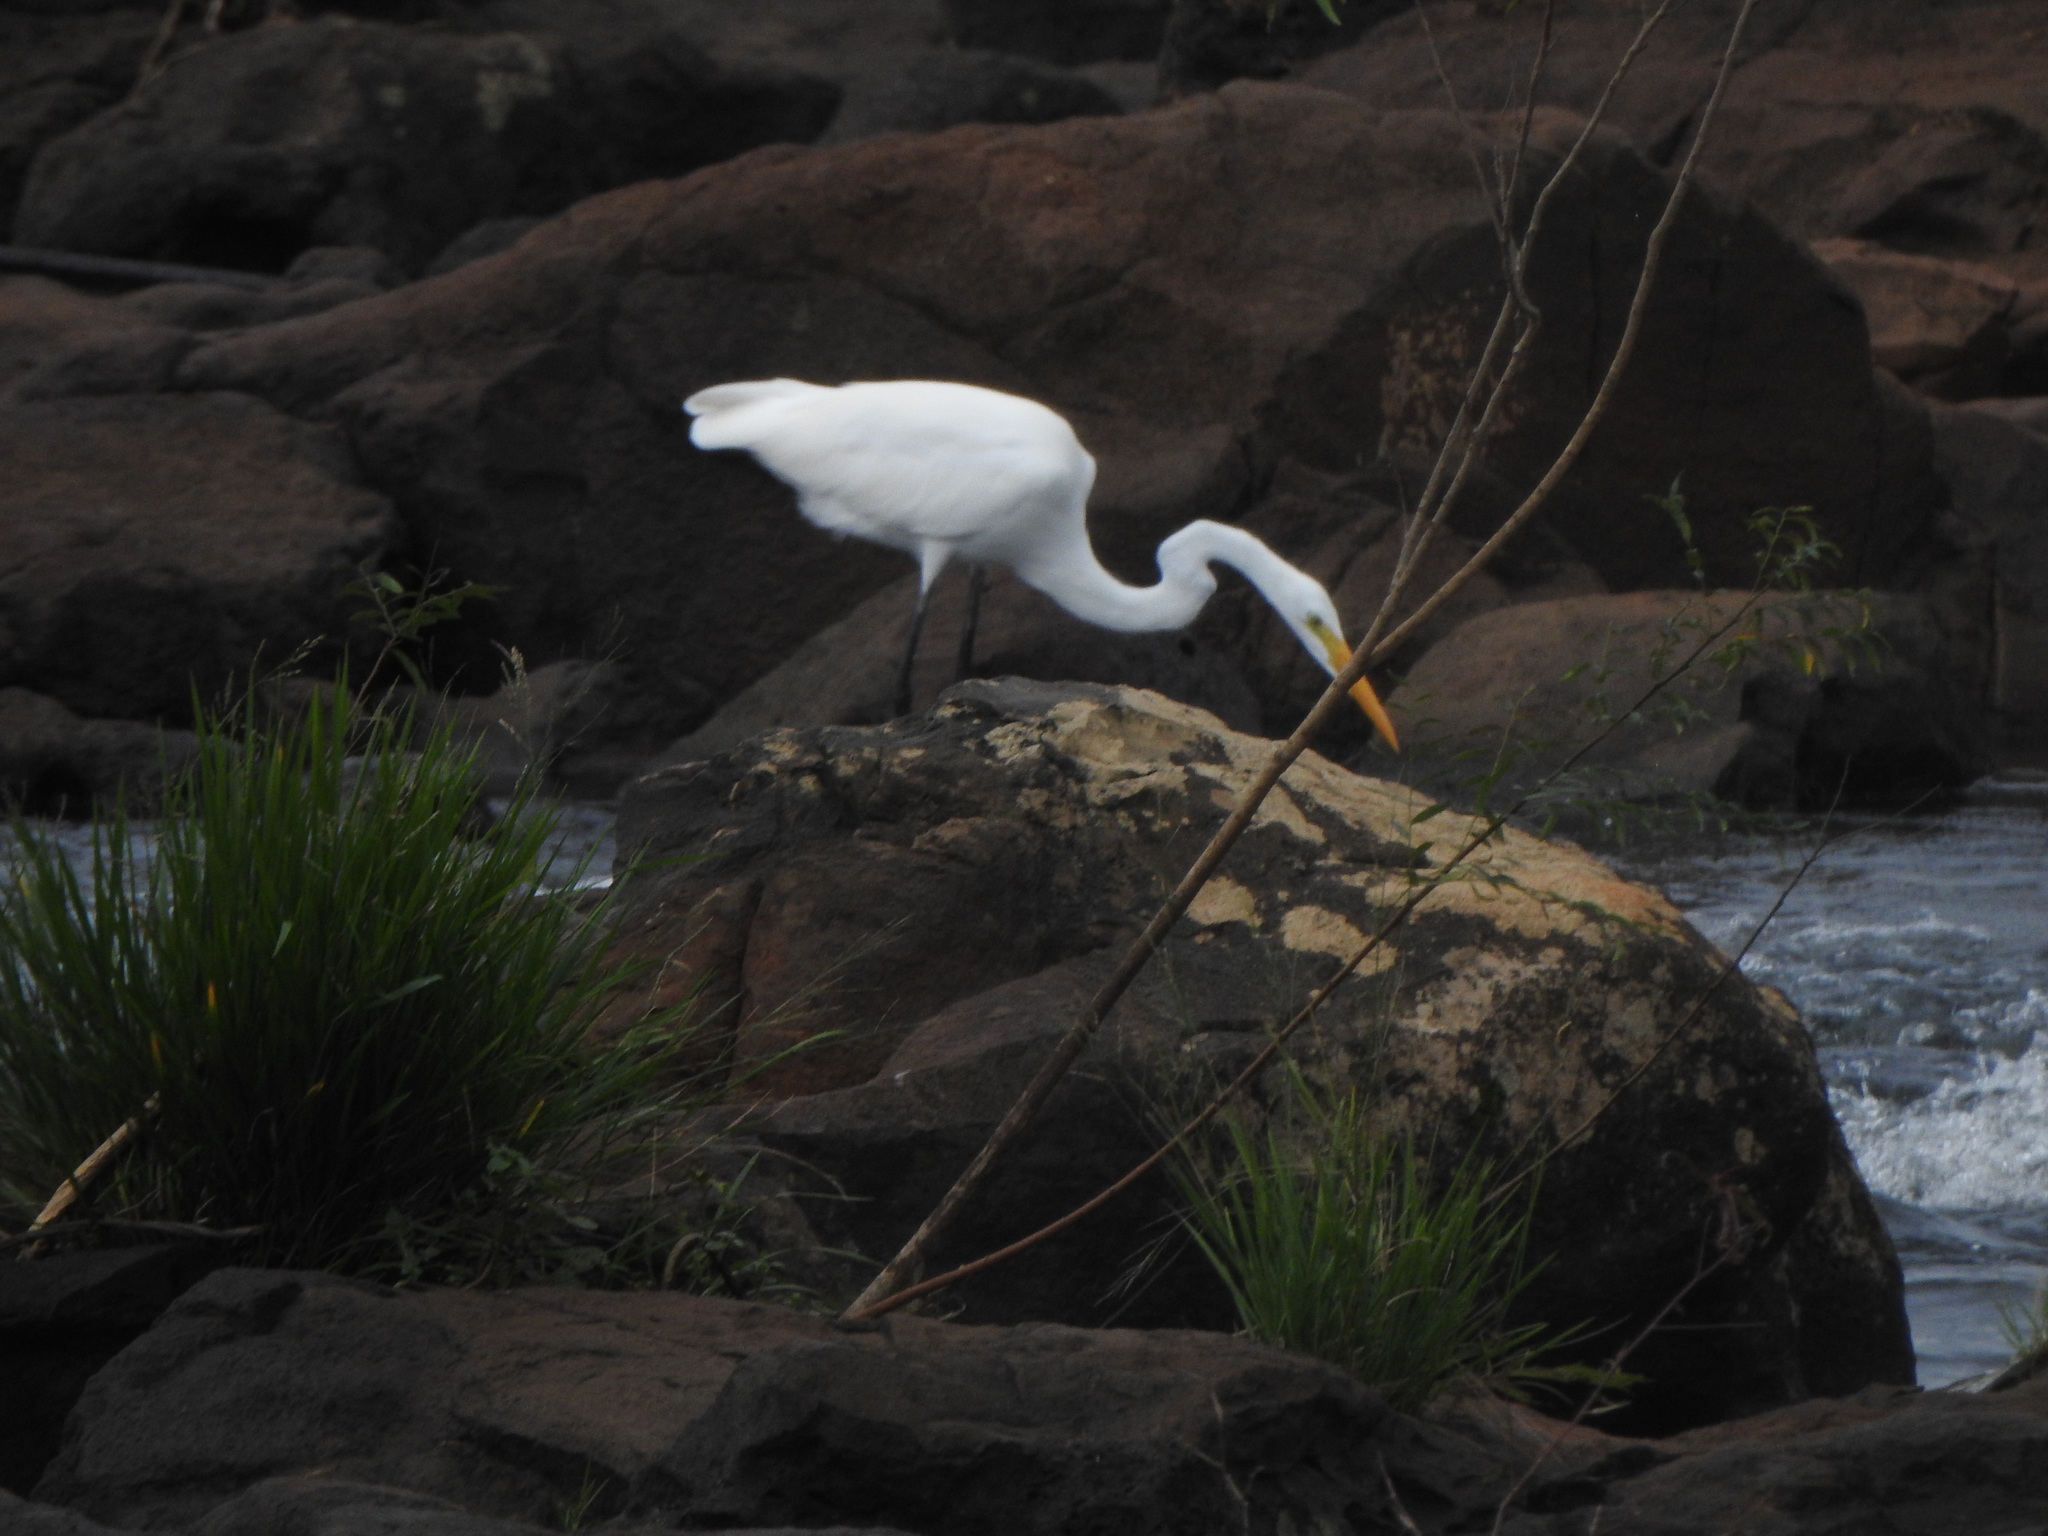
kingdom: Animalia
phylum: Chordata
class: Aves
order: Pelecaniformes
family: Ardeidae
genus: Ardea
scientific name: Ardea alba
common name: Great egret
